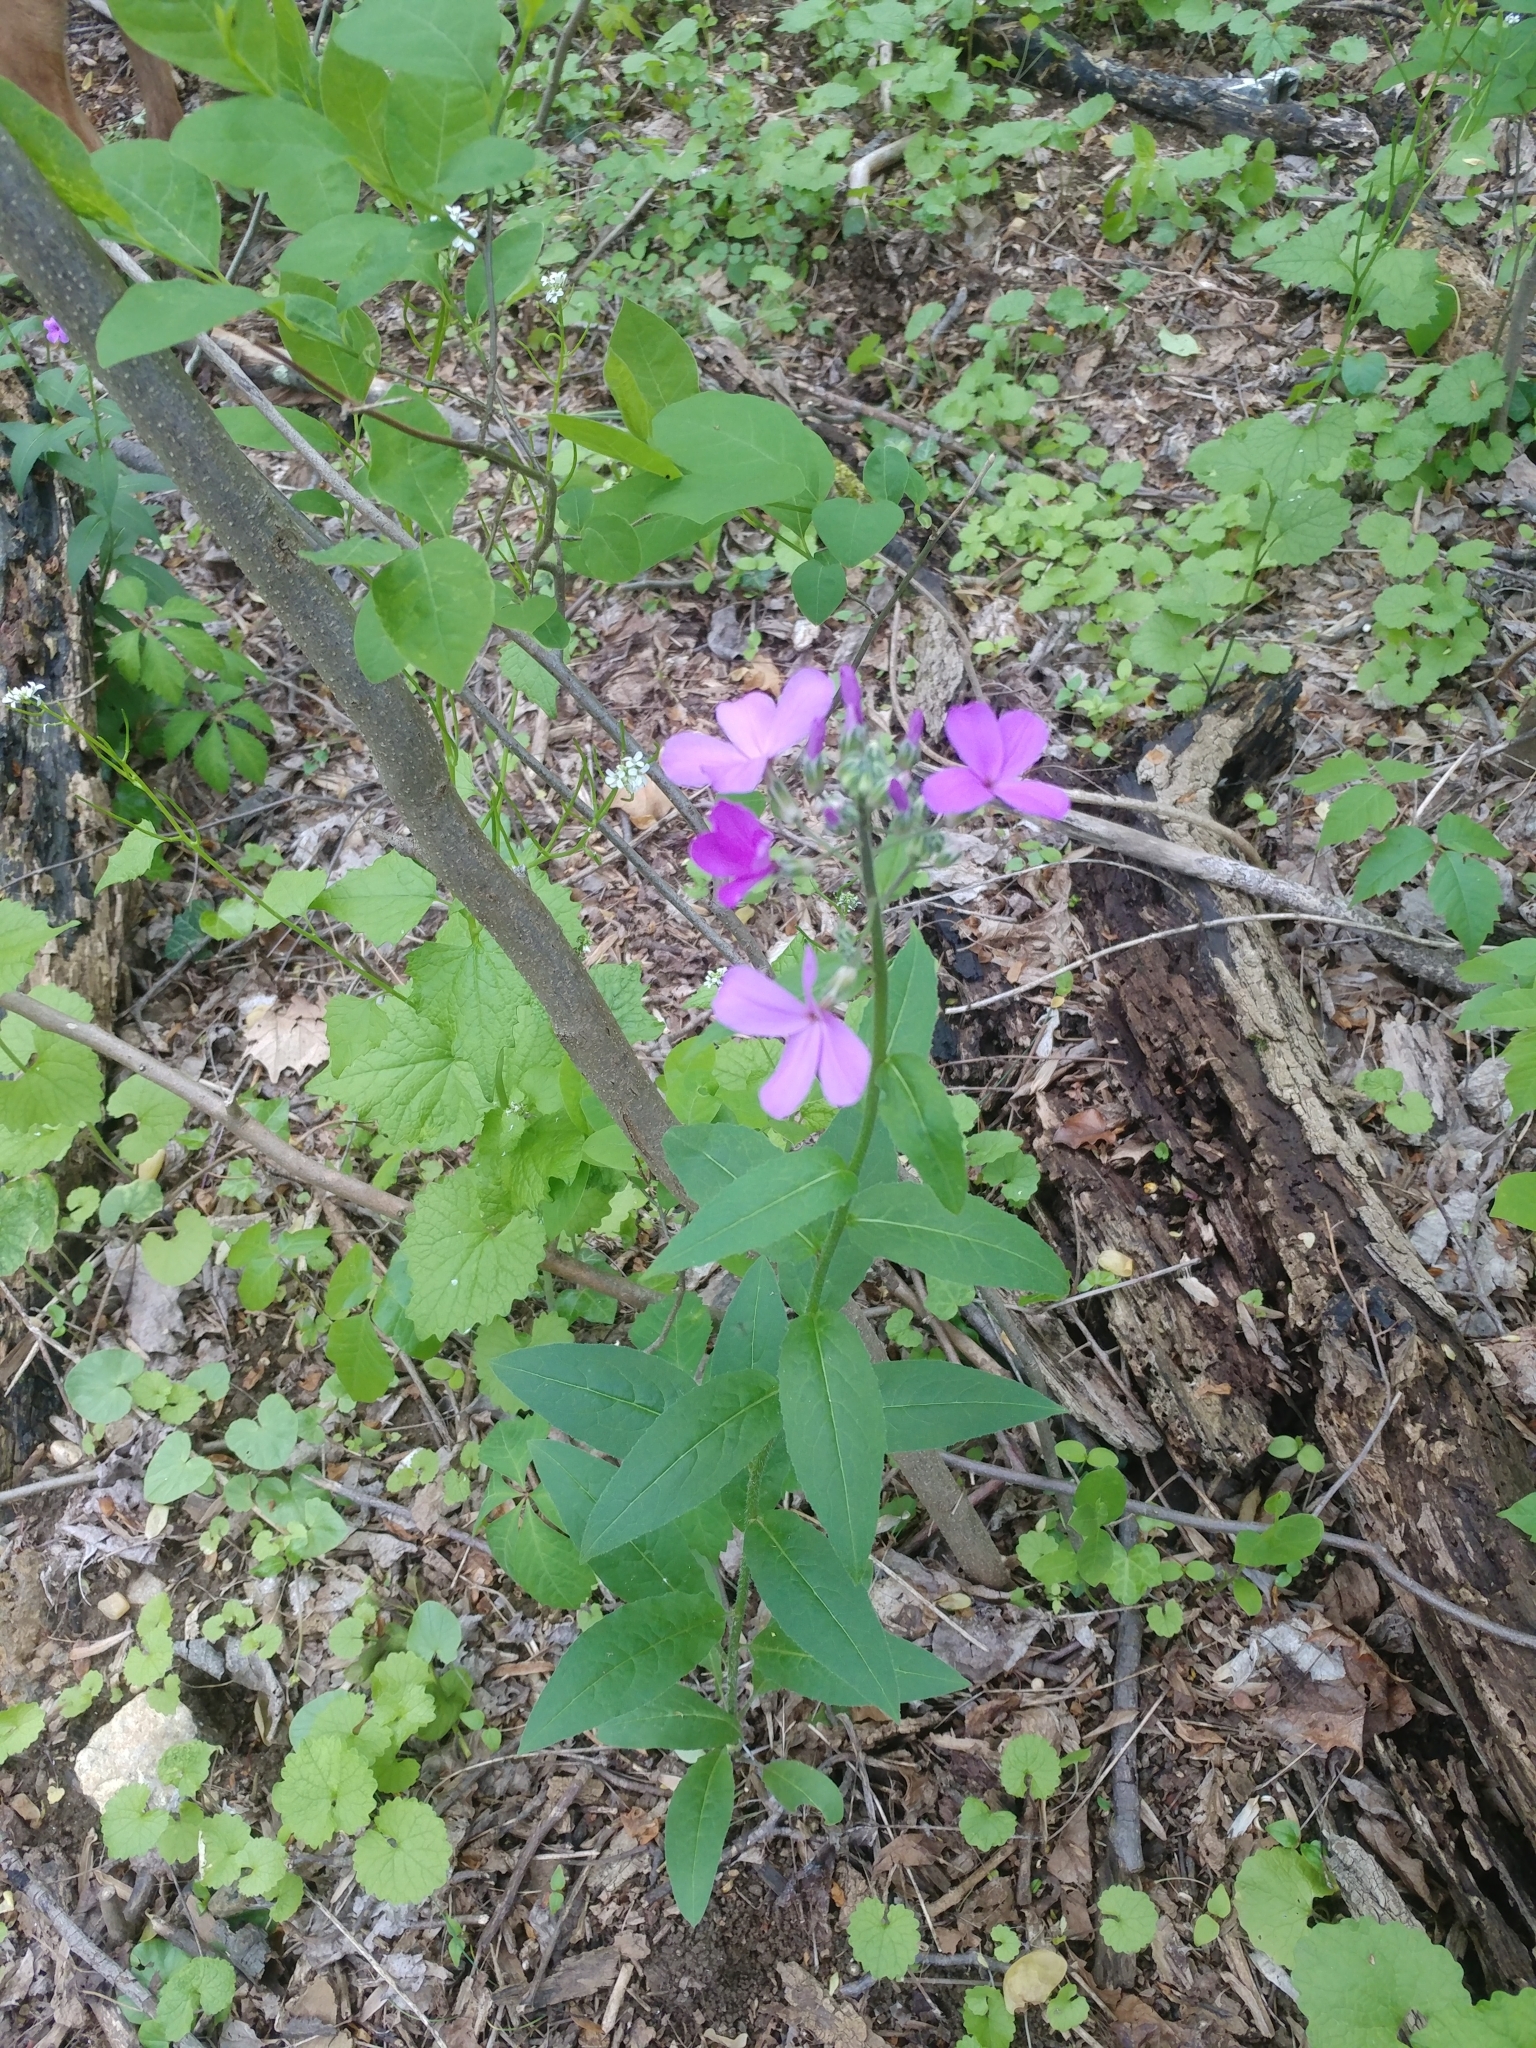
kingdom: Plantae
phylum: Tracheophyta
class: Magnoliopsida
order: Brassicales
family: Brassicaceae
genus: Hesperis
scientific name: Hesperis matronalis
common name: Dame's-violet
